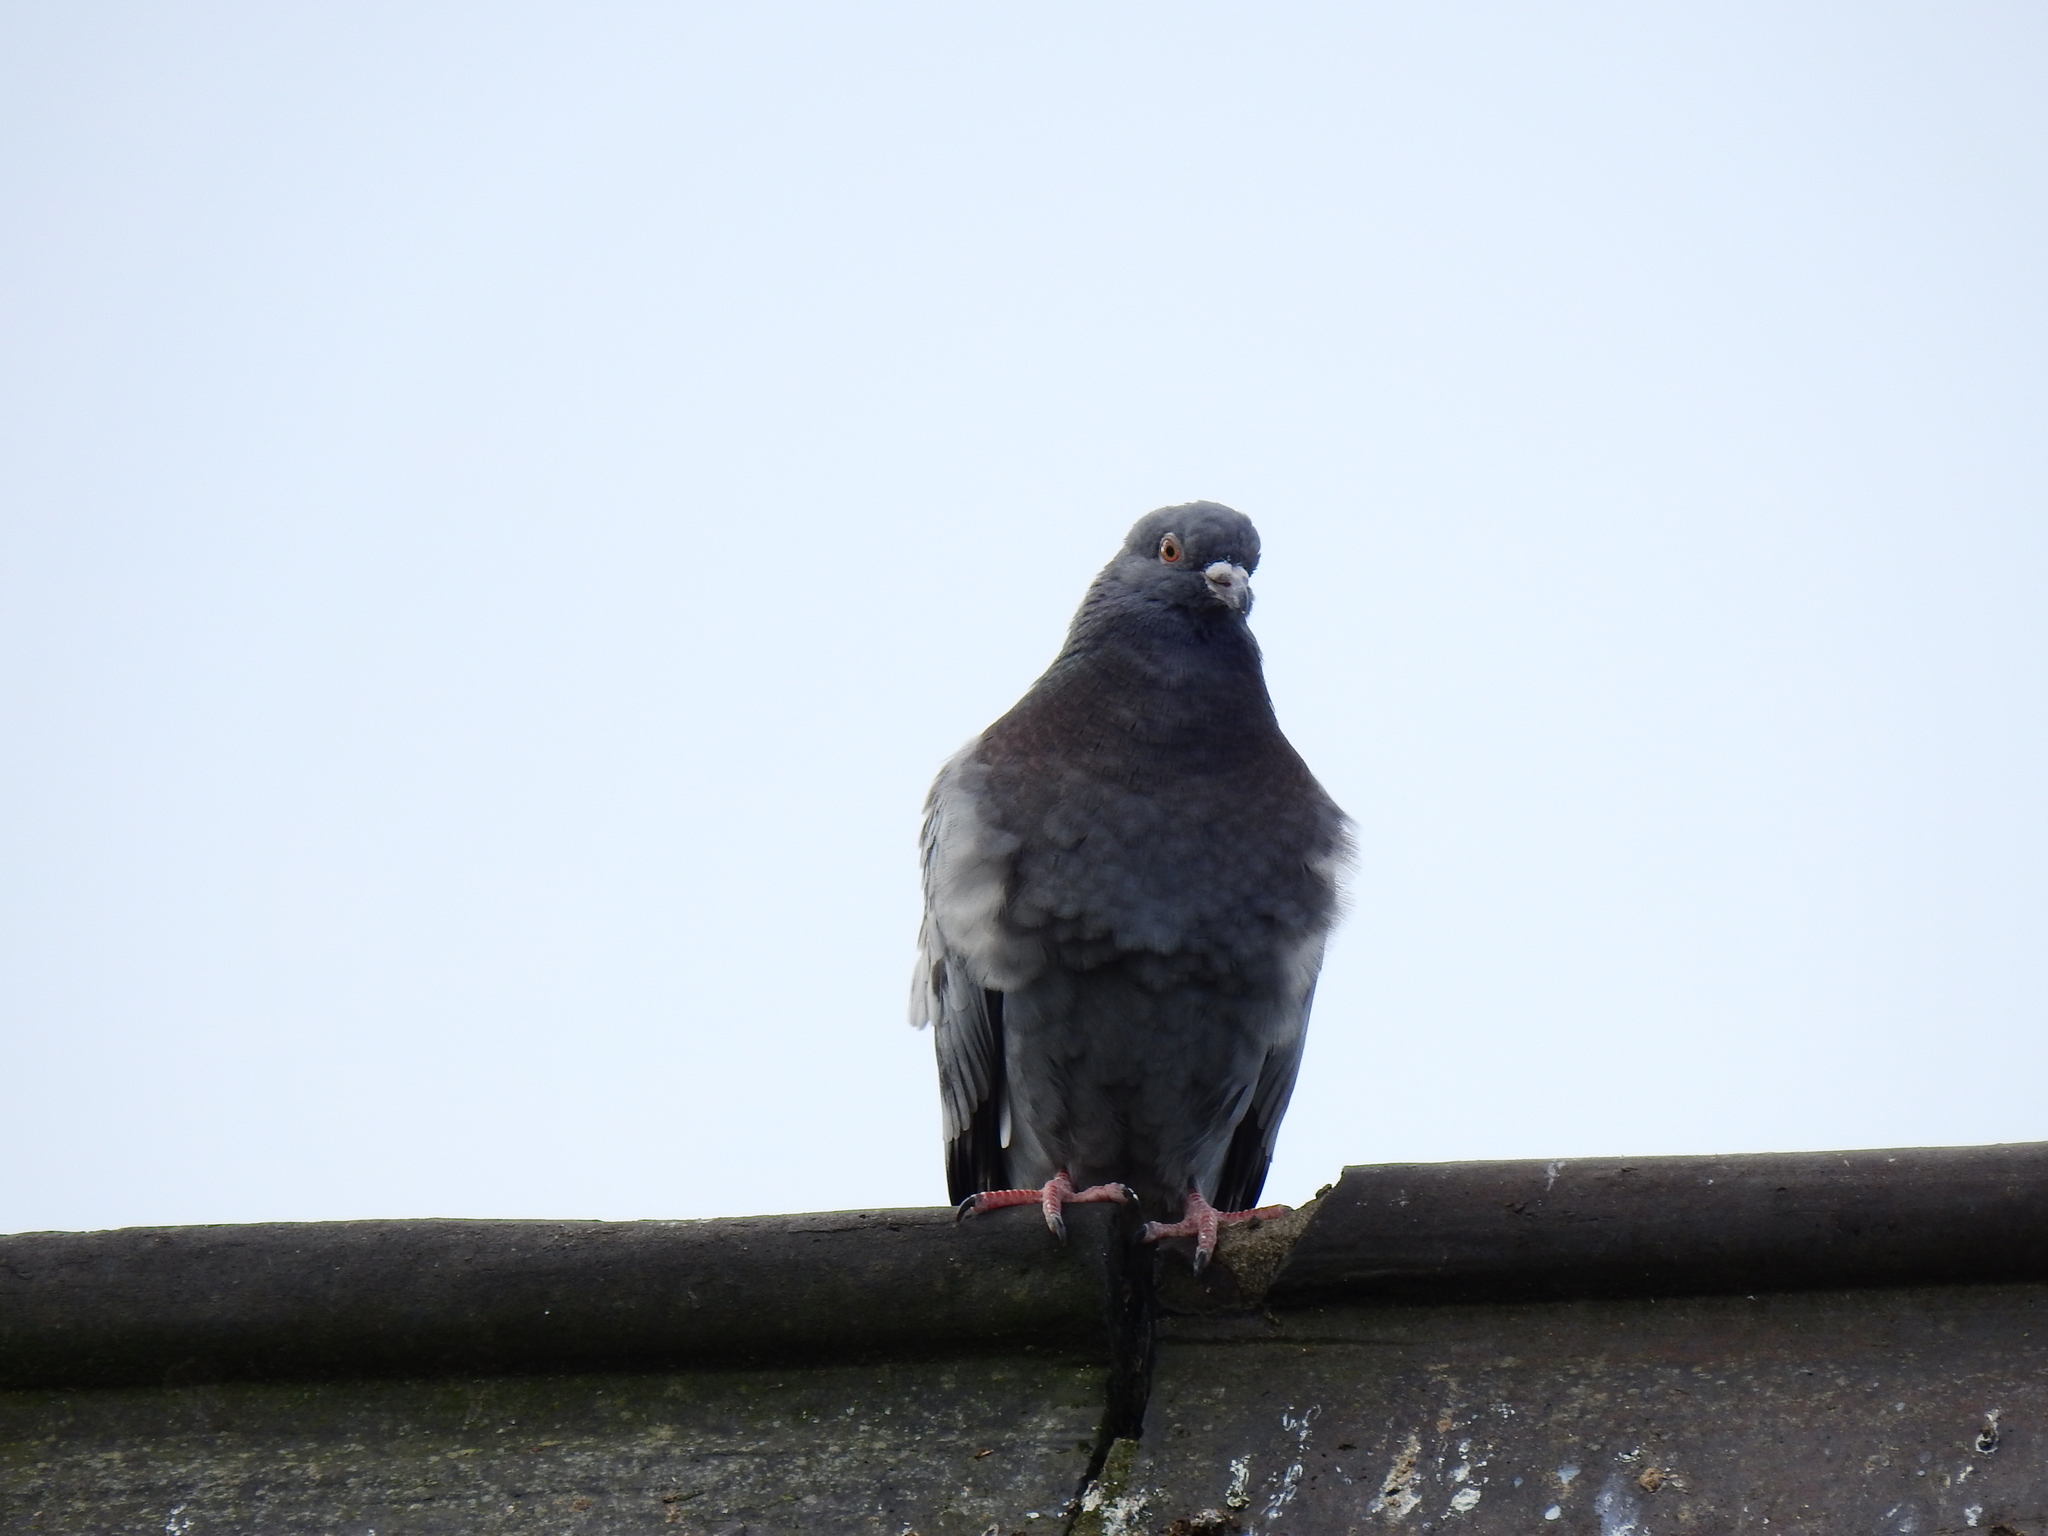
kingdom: Animalia
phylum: Chordata
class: Aves
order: Columbiformes
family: Columbidae
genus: Columba
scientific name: Columba livia
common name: Rock pigeon
